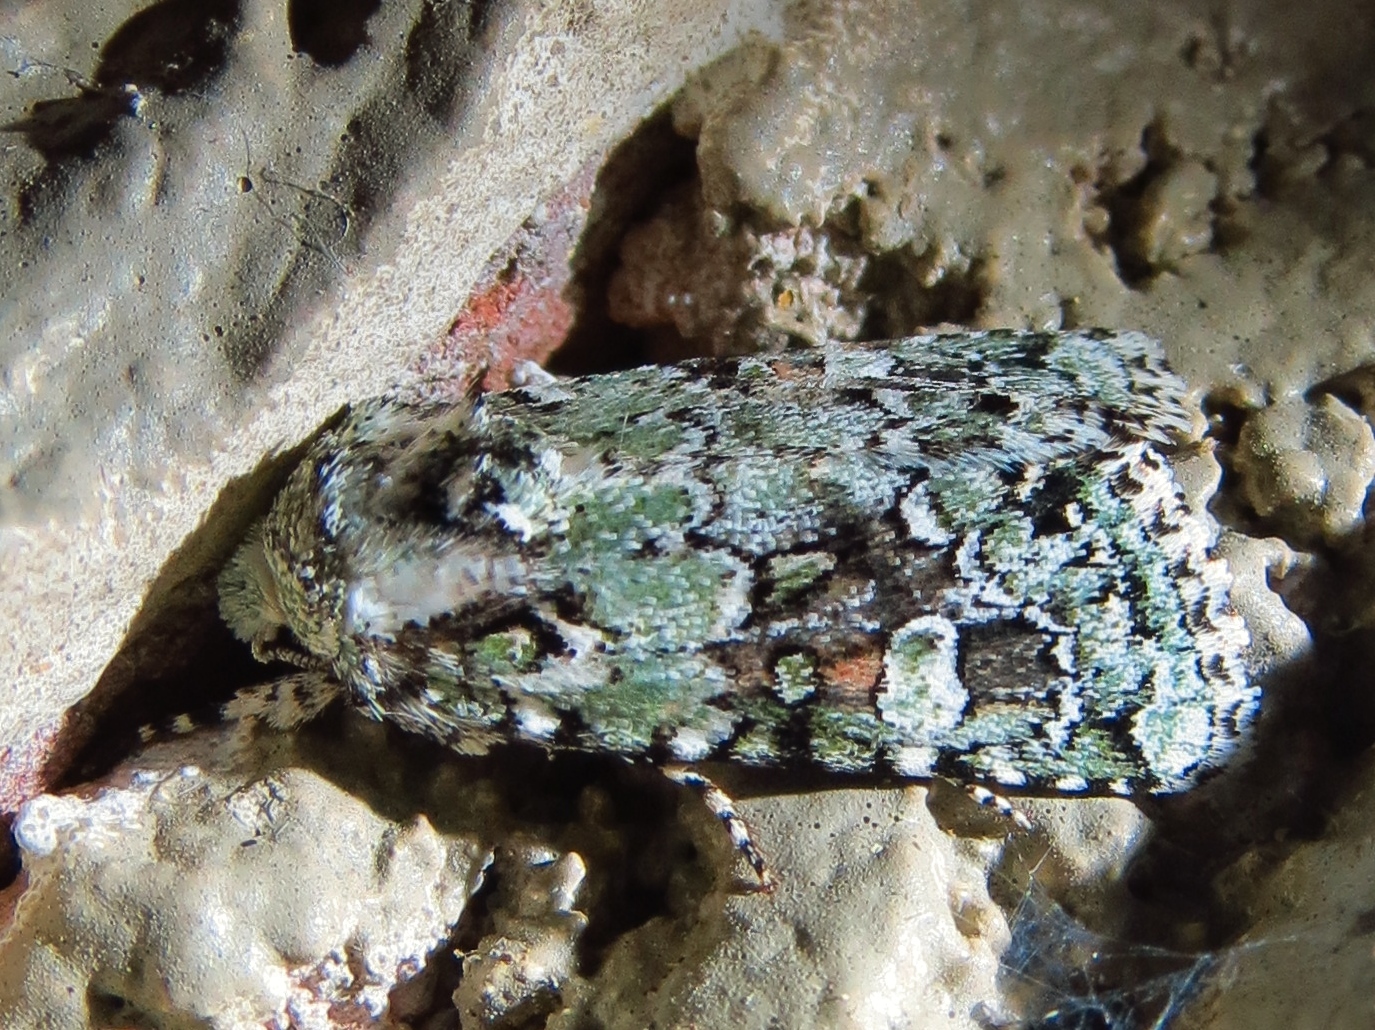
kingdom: Animalia
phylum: Arthropoda
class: Insecta
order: Lepidoptera
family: Noctuidae
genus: Lacinipolia
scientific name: Lacinipolia laudabilis
